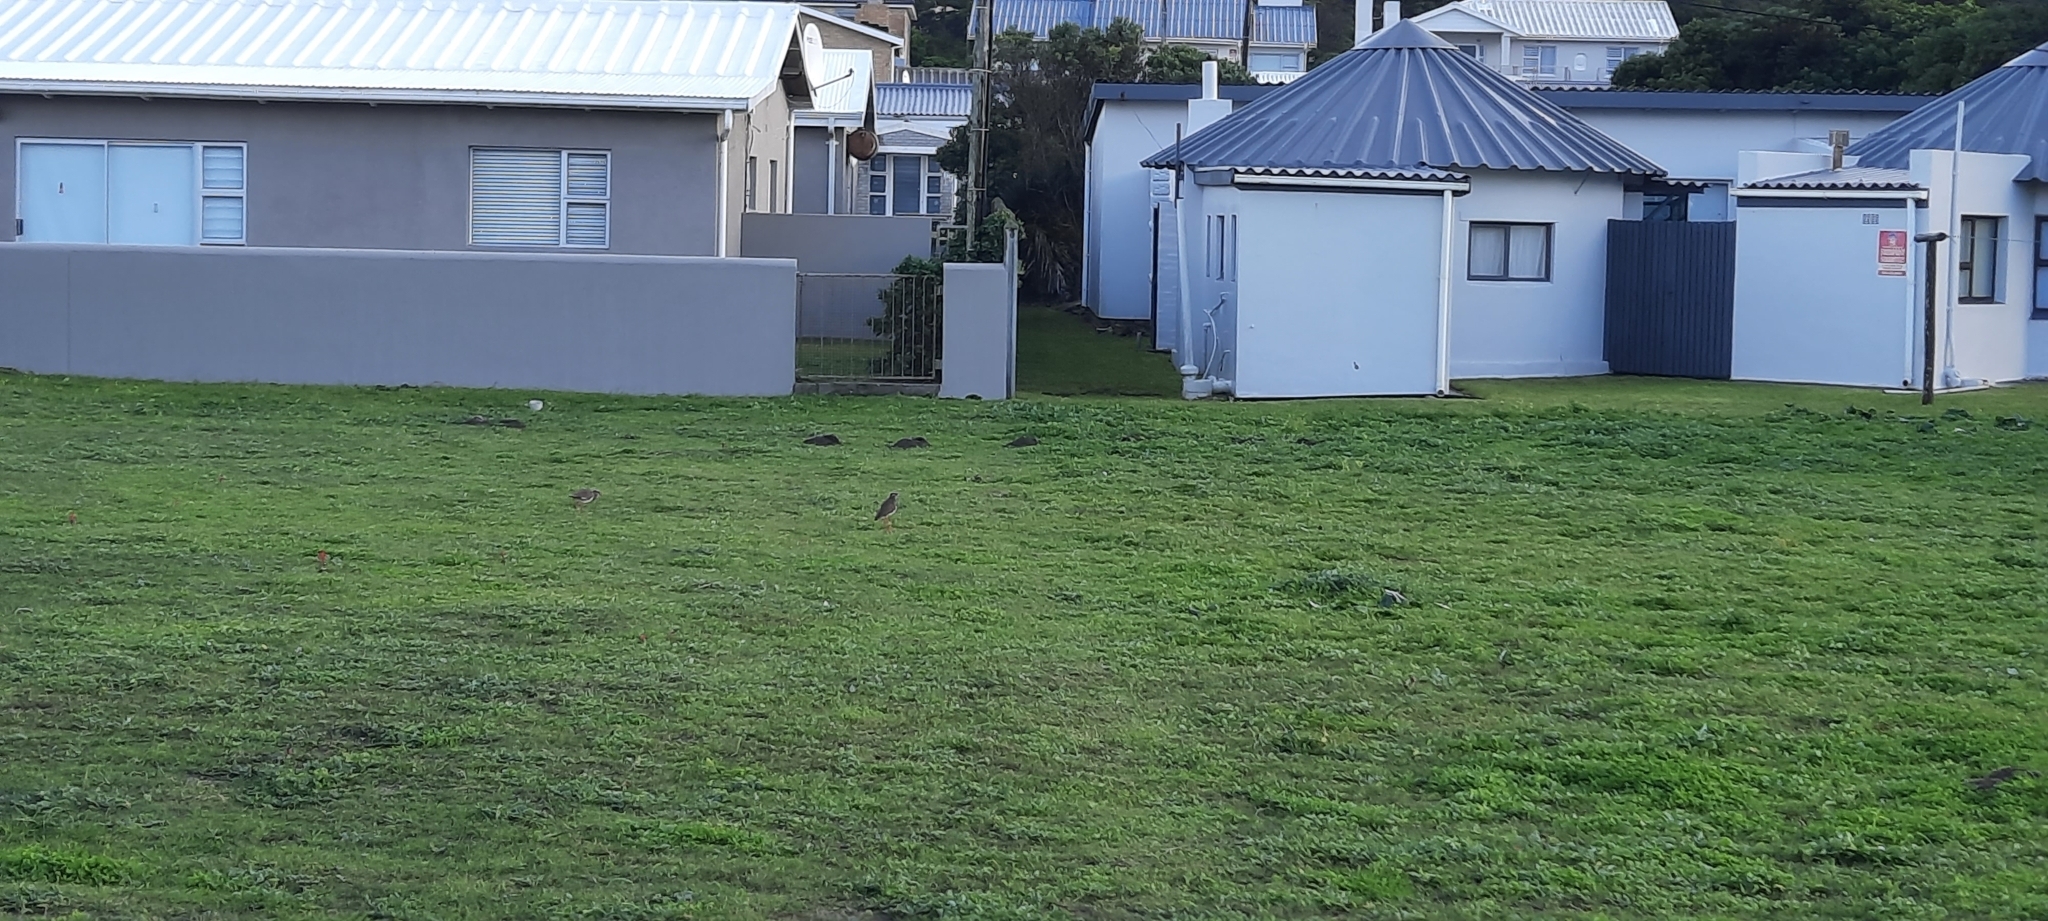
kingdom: Animalia
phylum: Chordata
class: Aves
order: Charadriiformes
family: Charadriidae
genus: Vanellus
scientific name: Vanellus coronatus
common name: Crowned lapwing
